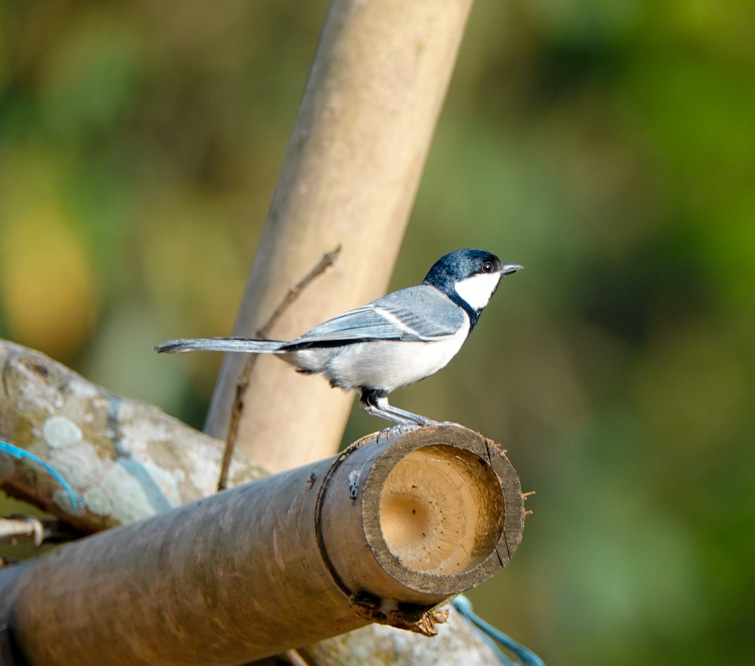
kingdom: Animalia
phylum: Chordata
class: Aves
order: Passeriformes
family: Paridae
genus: Parus
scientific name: Parus cinereus
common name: Cinereous tit
